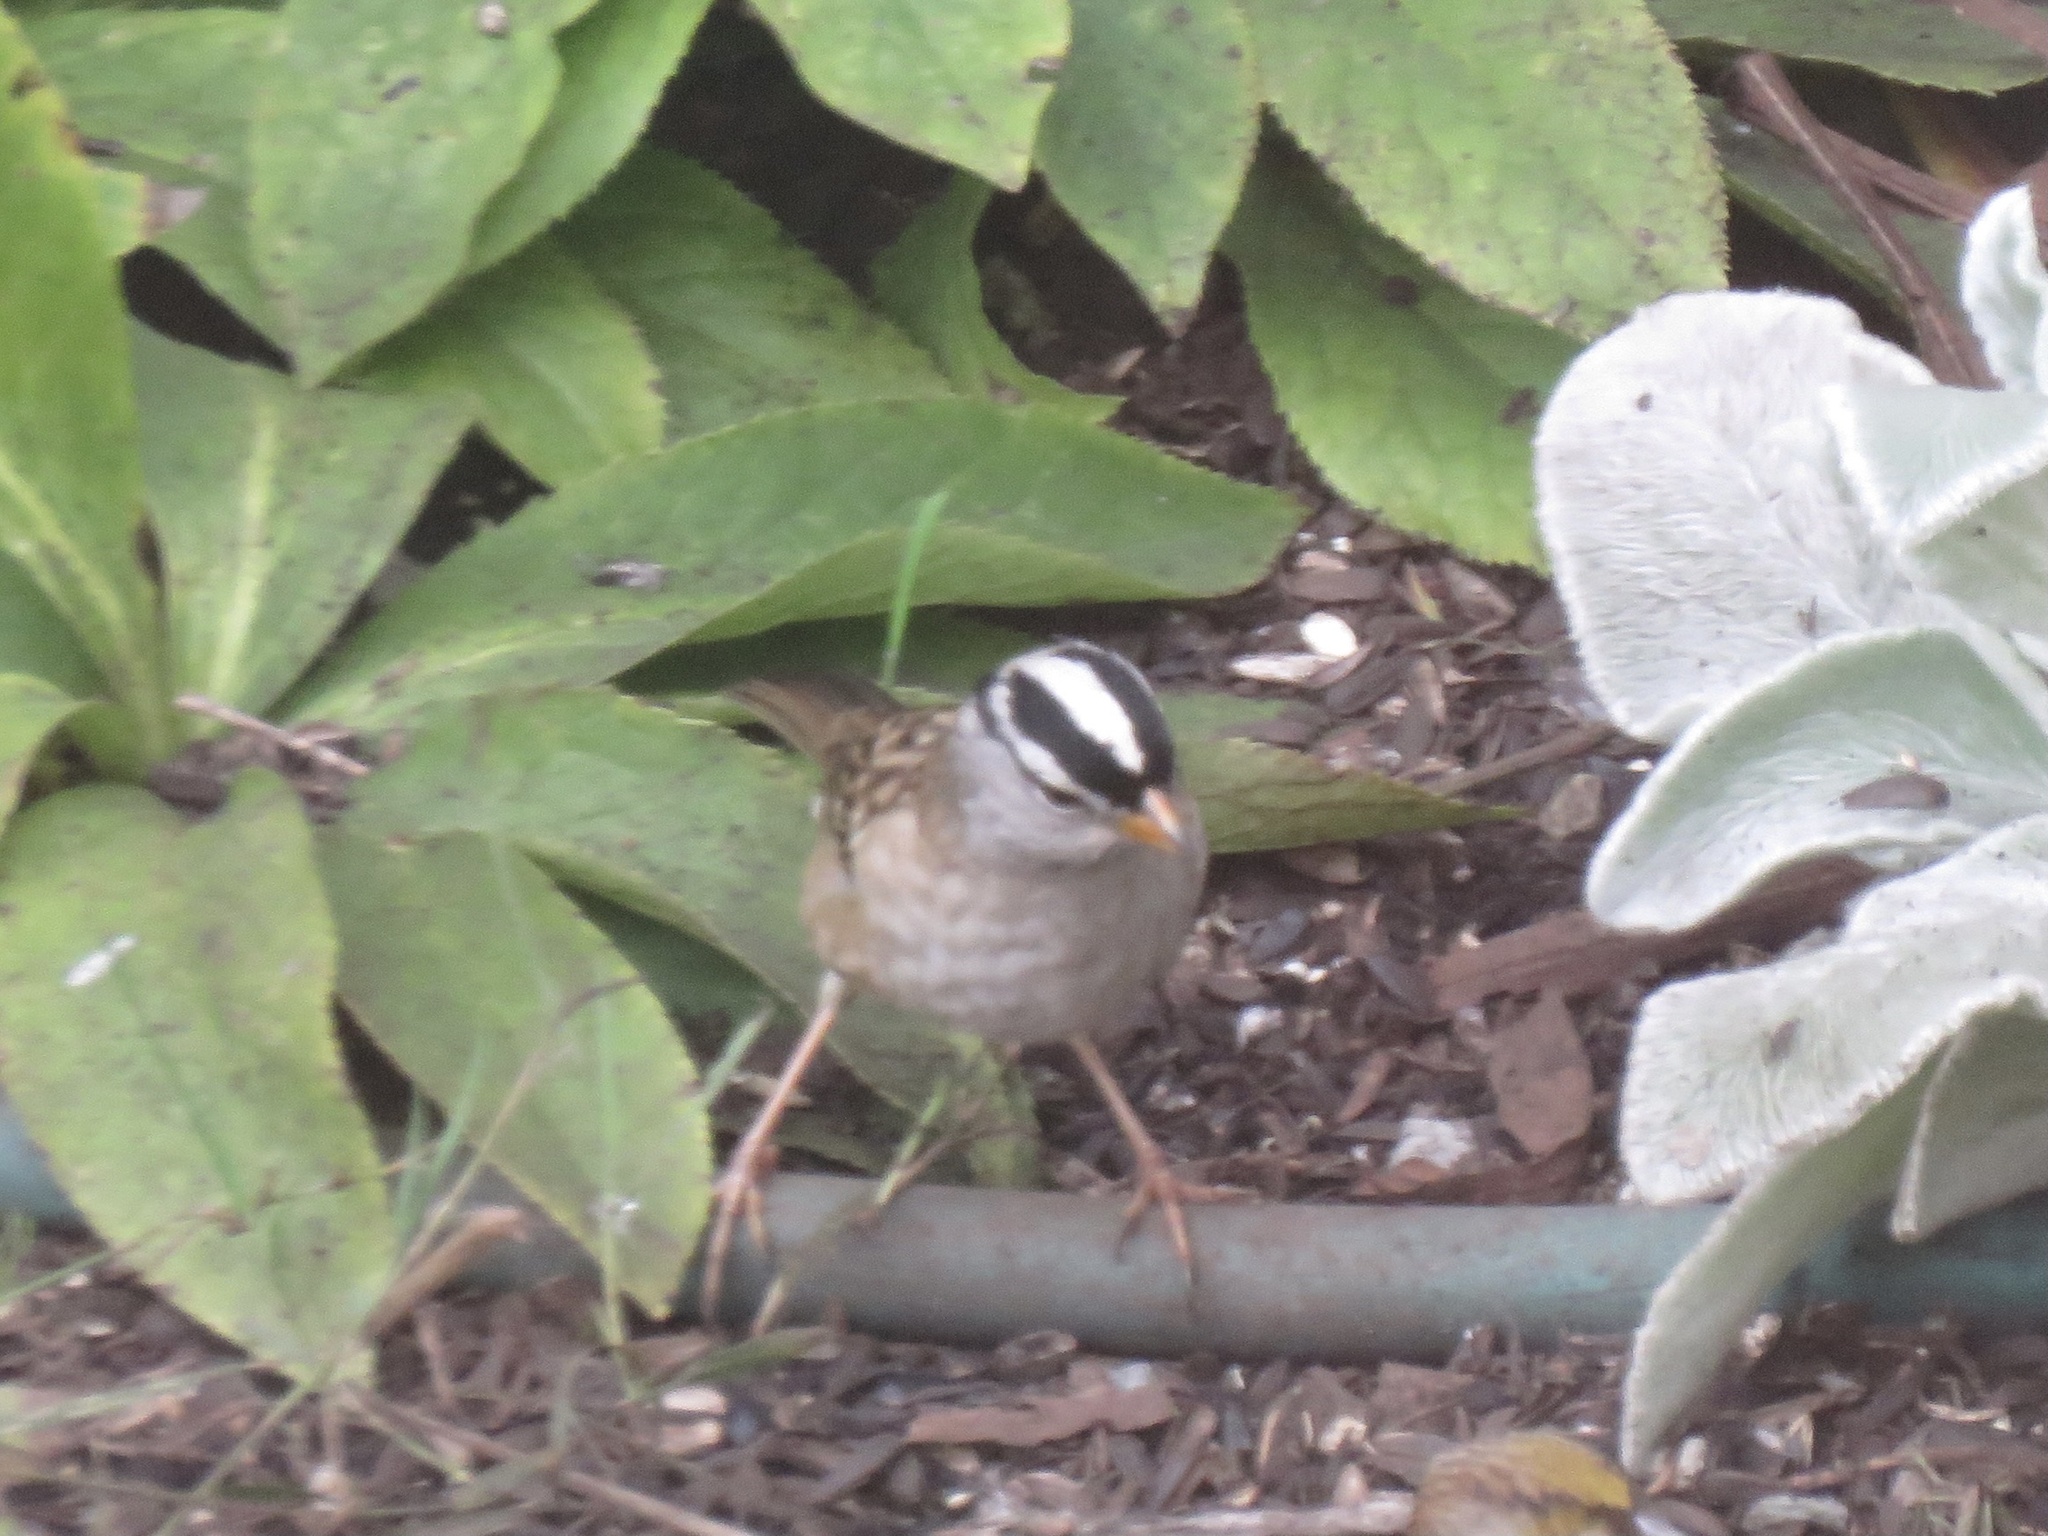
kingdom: Animalia
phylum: Chordata
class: Aves
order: Passeriformes
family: Passerellidae
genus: Zonotrichia
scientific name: Zonotrichia leucophrys
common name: White-crowned sparrow
